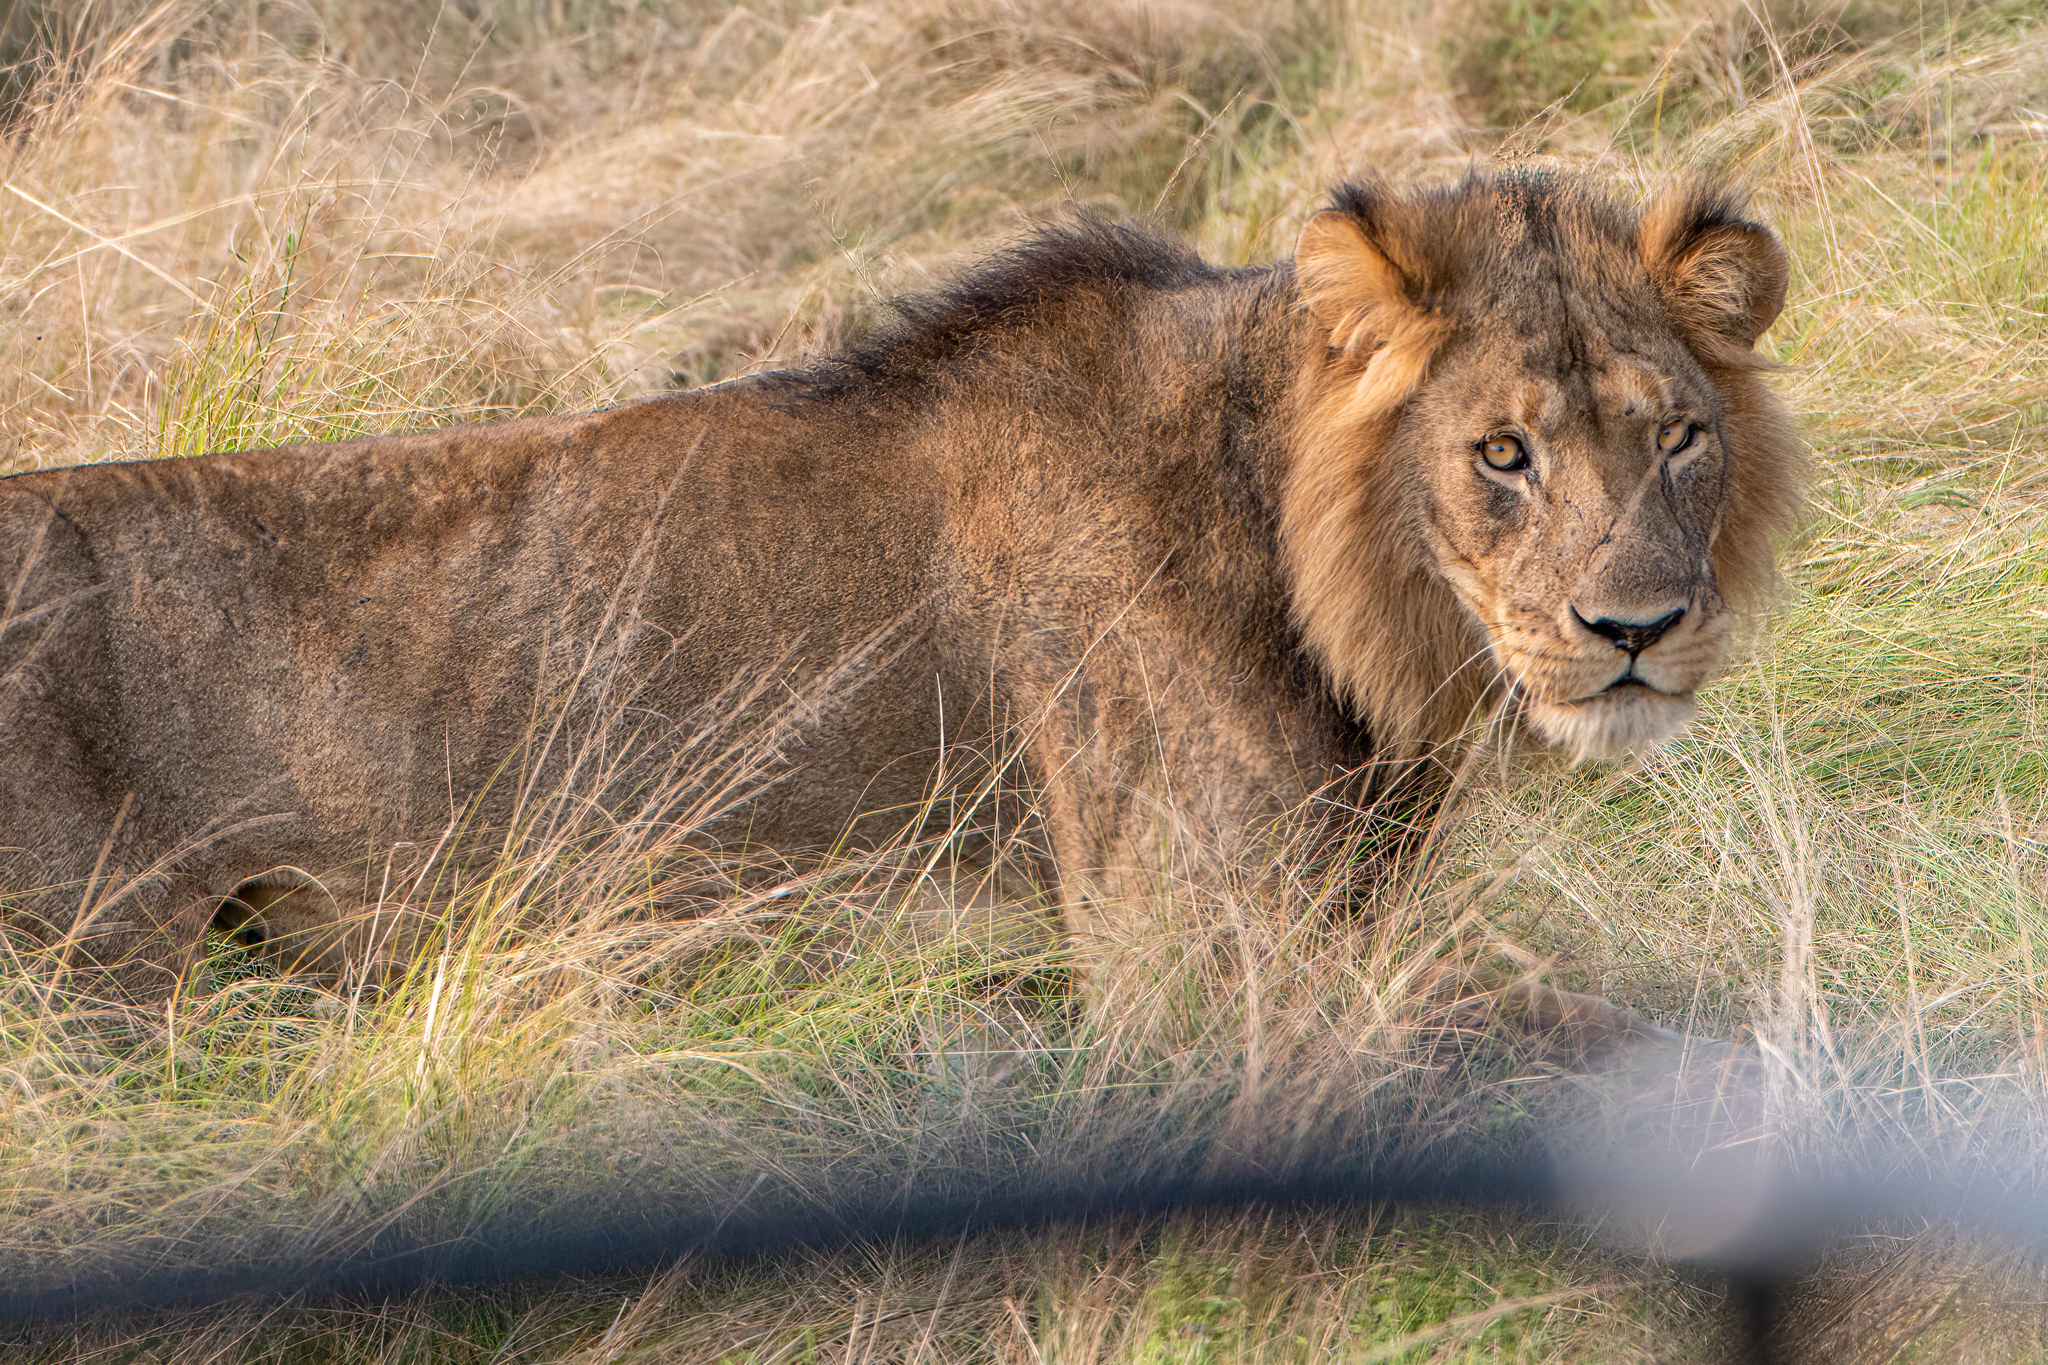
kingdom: Animalia
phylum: Chordata
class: Mammalia
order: Carnivora
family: Felidae
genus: Panthera
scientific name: Panthera leo
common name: Lion
